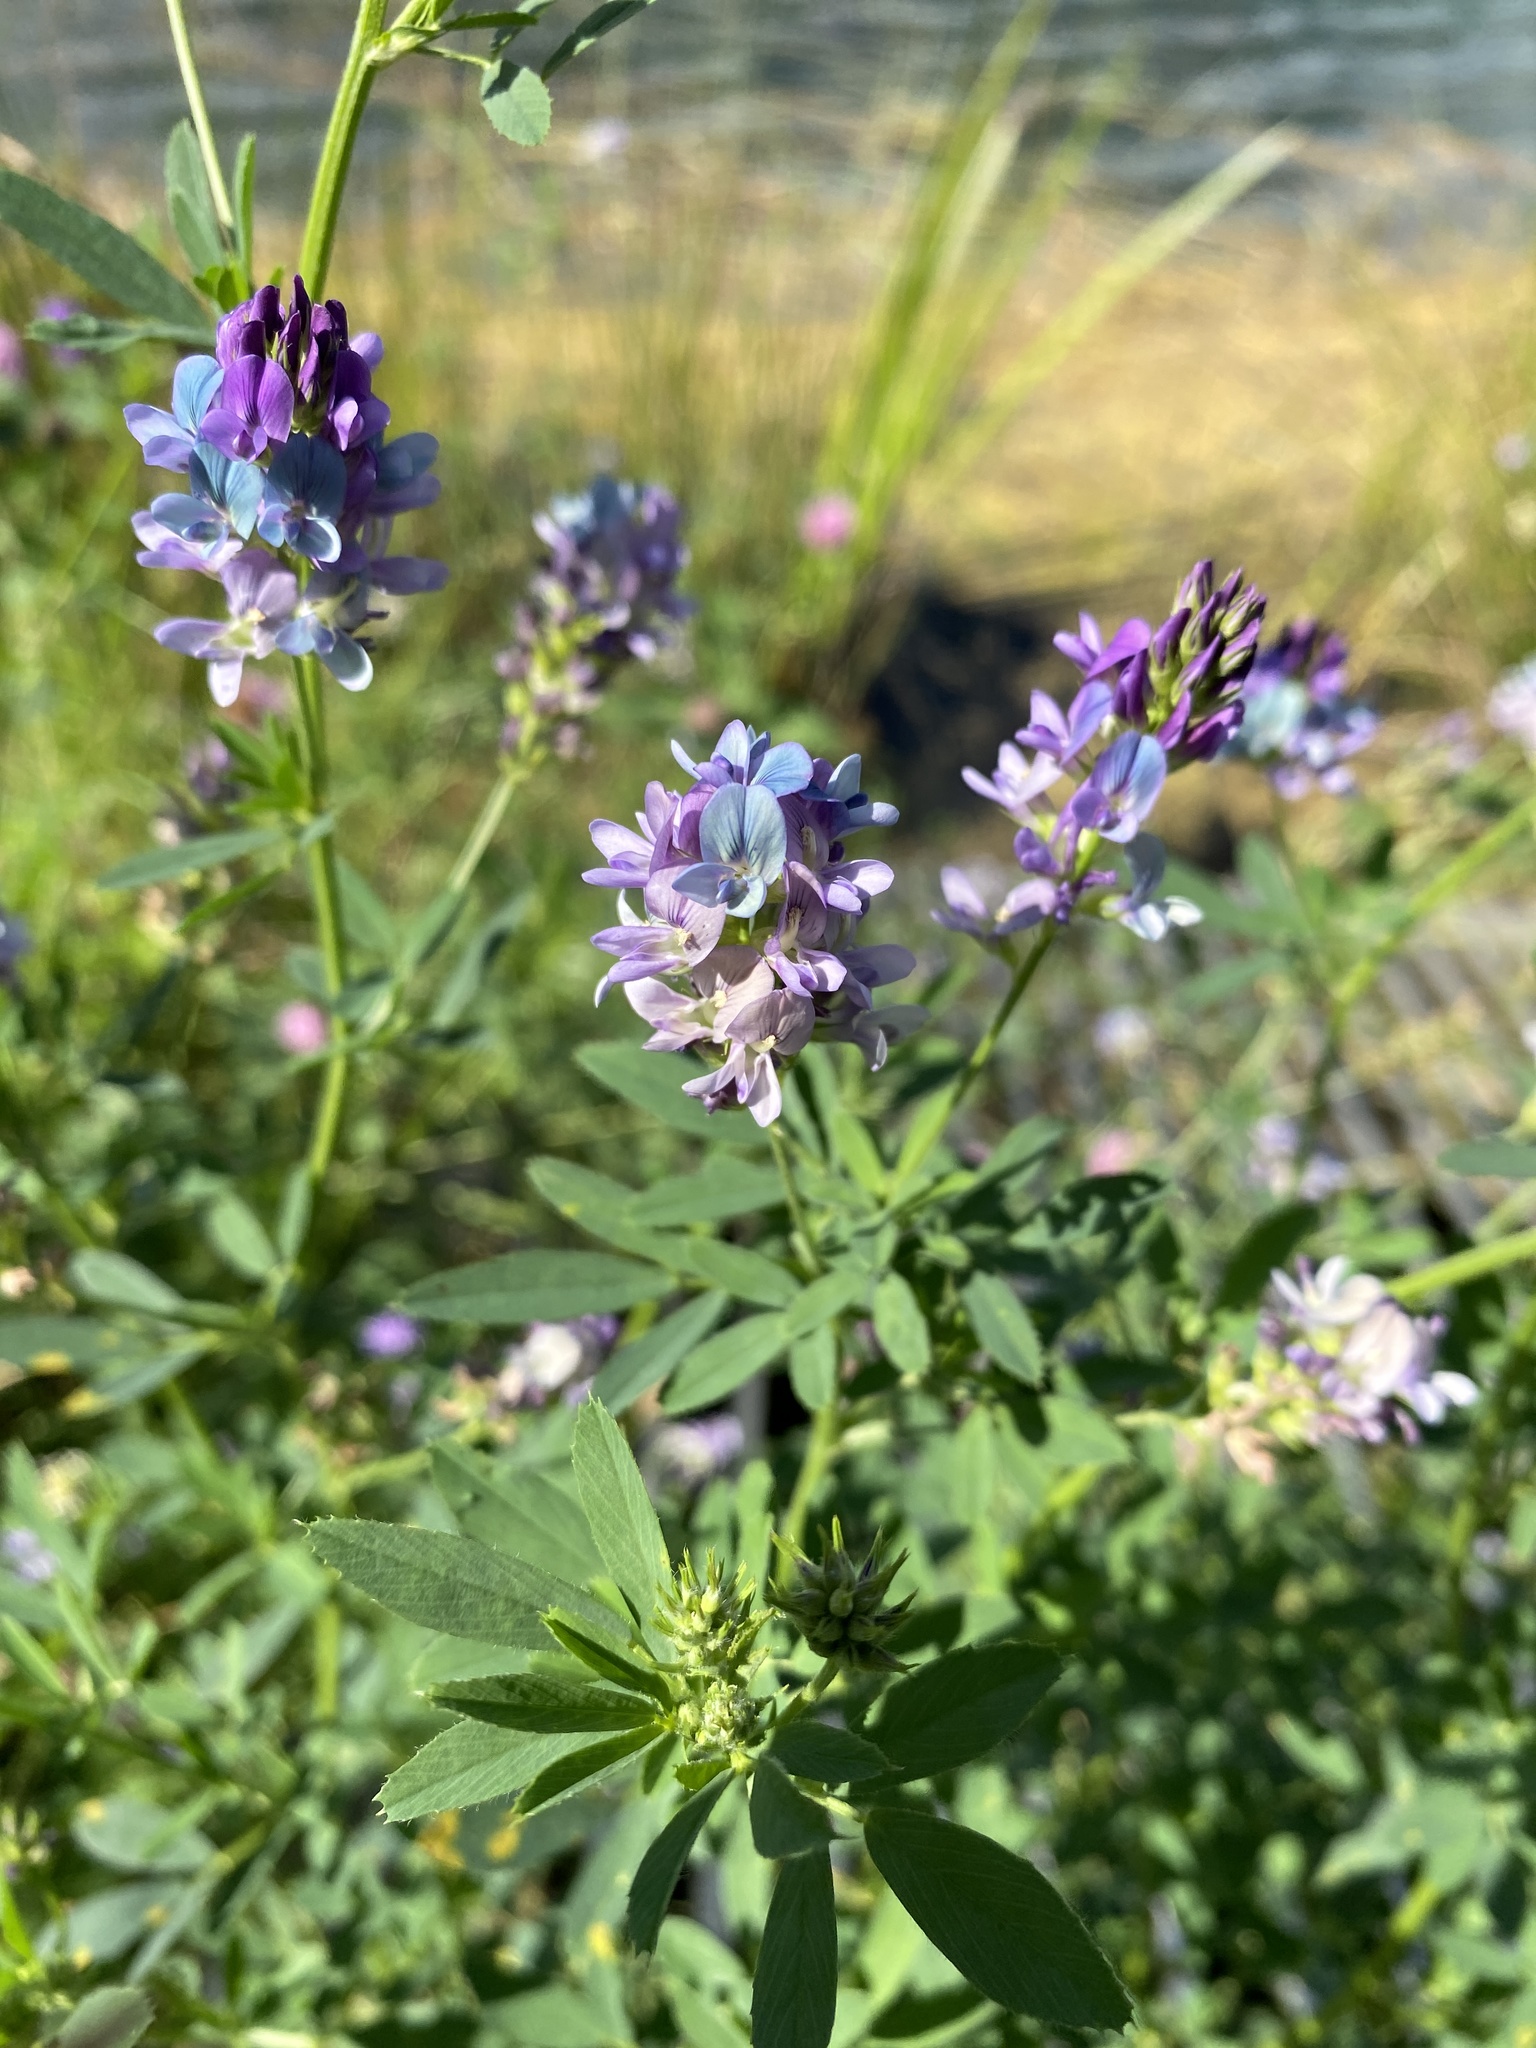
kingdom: Plantae
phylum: Tracheophyta
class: Magnoliopsida
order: Fabales
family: Fabaceae
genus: Medicago
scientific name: Medicago sativa
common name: Alfalfa
